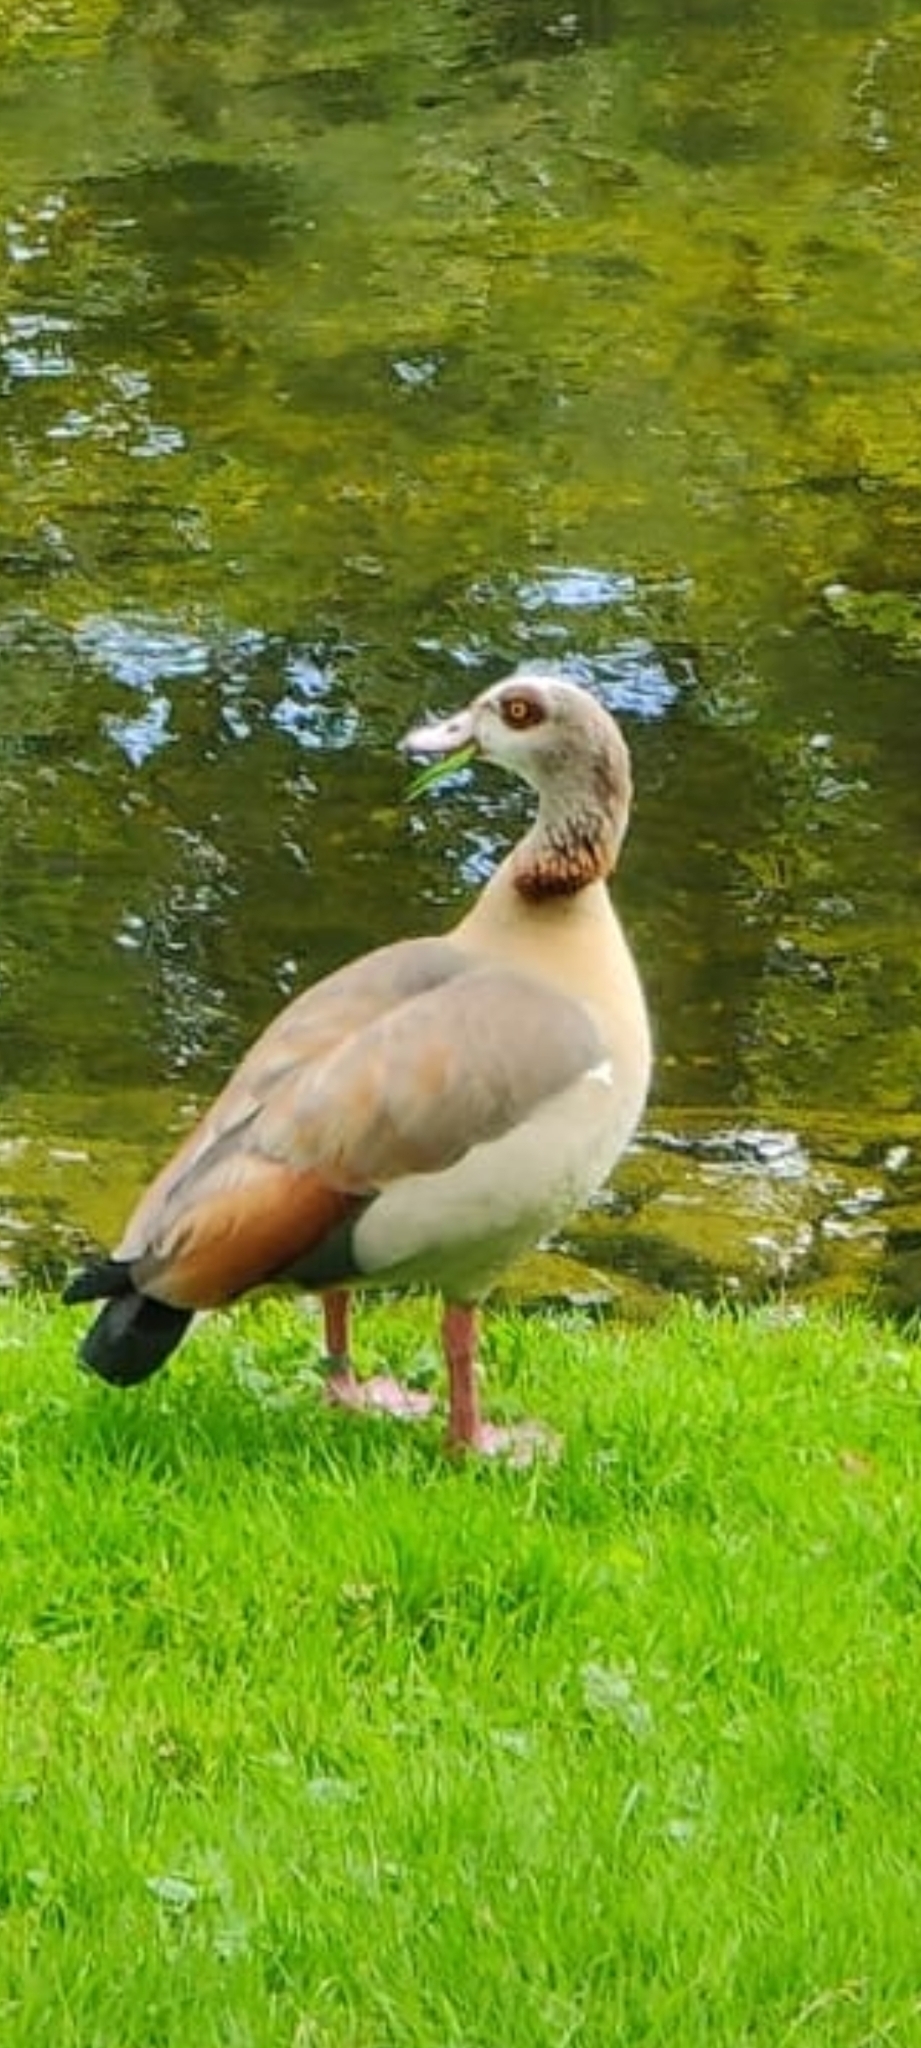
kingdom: Animalia
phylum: Chordata
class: Aves
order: Anseriformes
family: Anatidae
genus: Alopochen
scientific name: Alopochen aegyptiaca
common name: Egyptian goose
